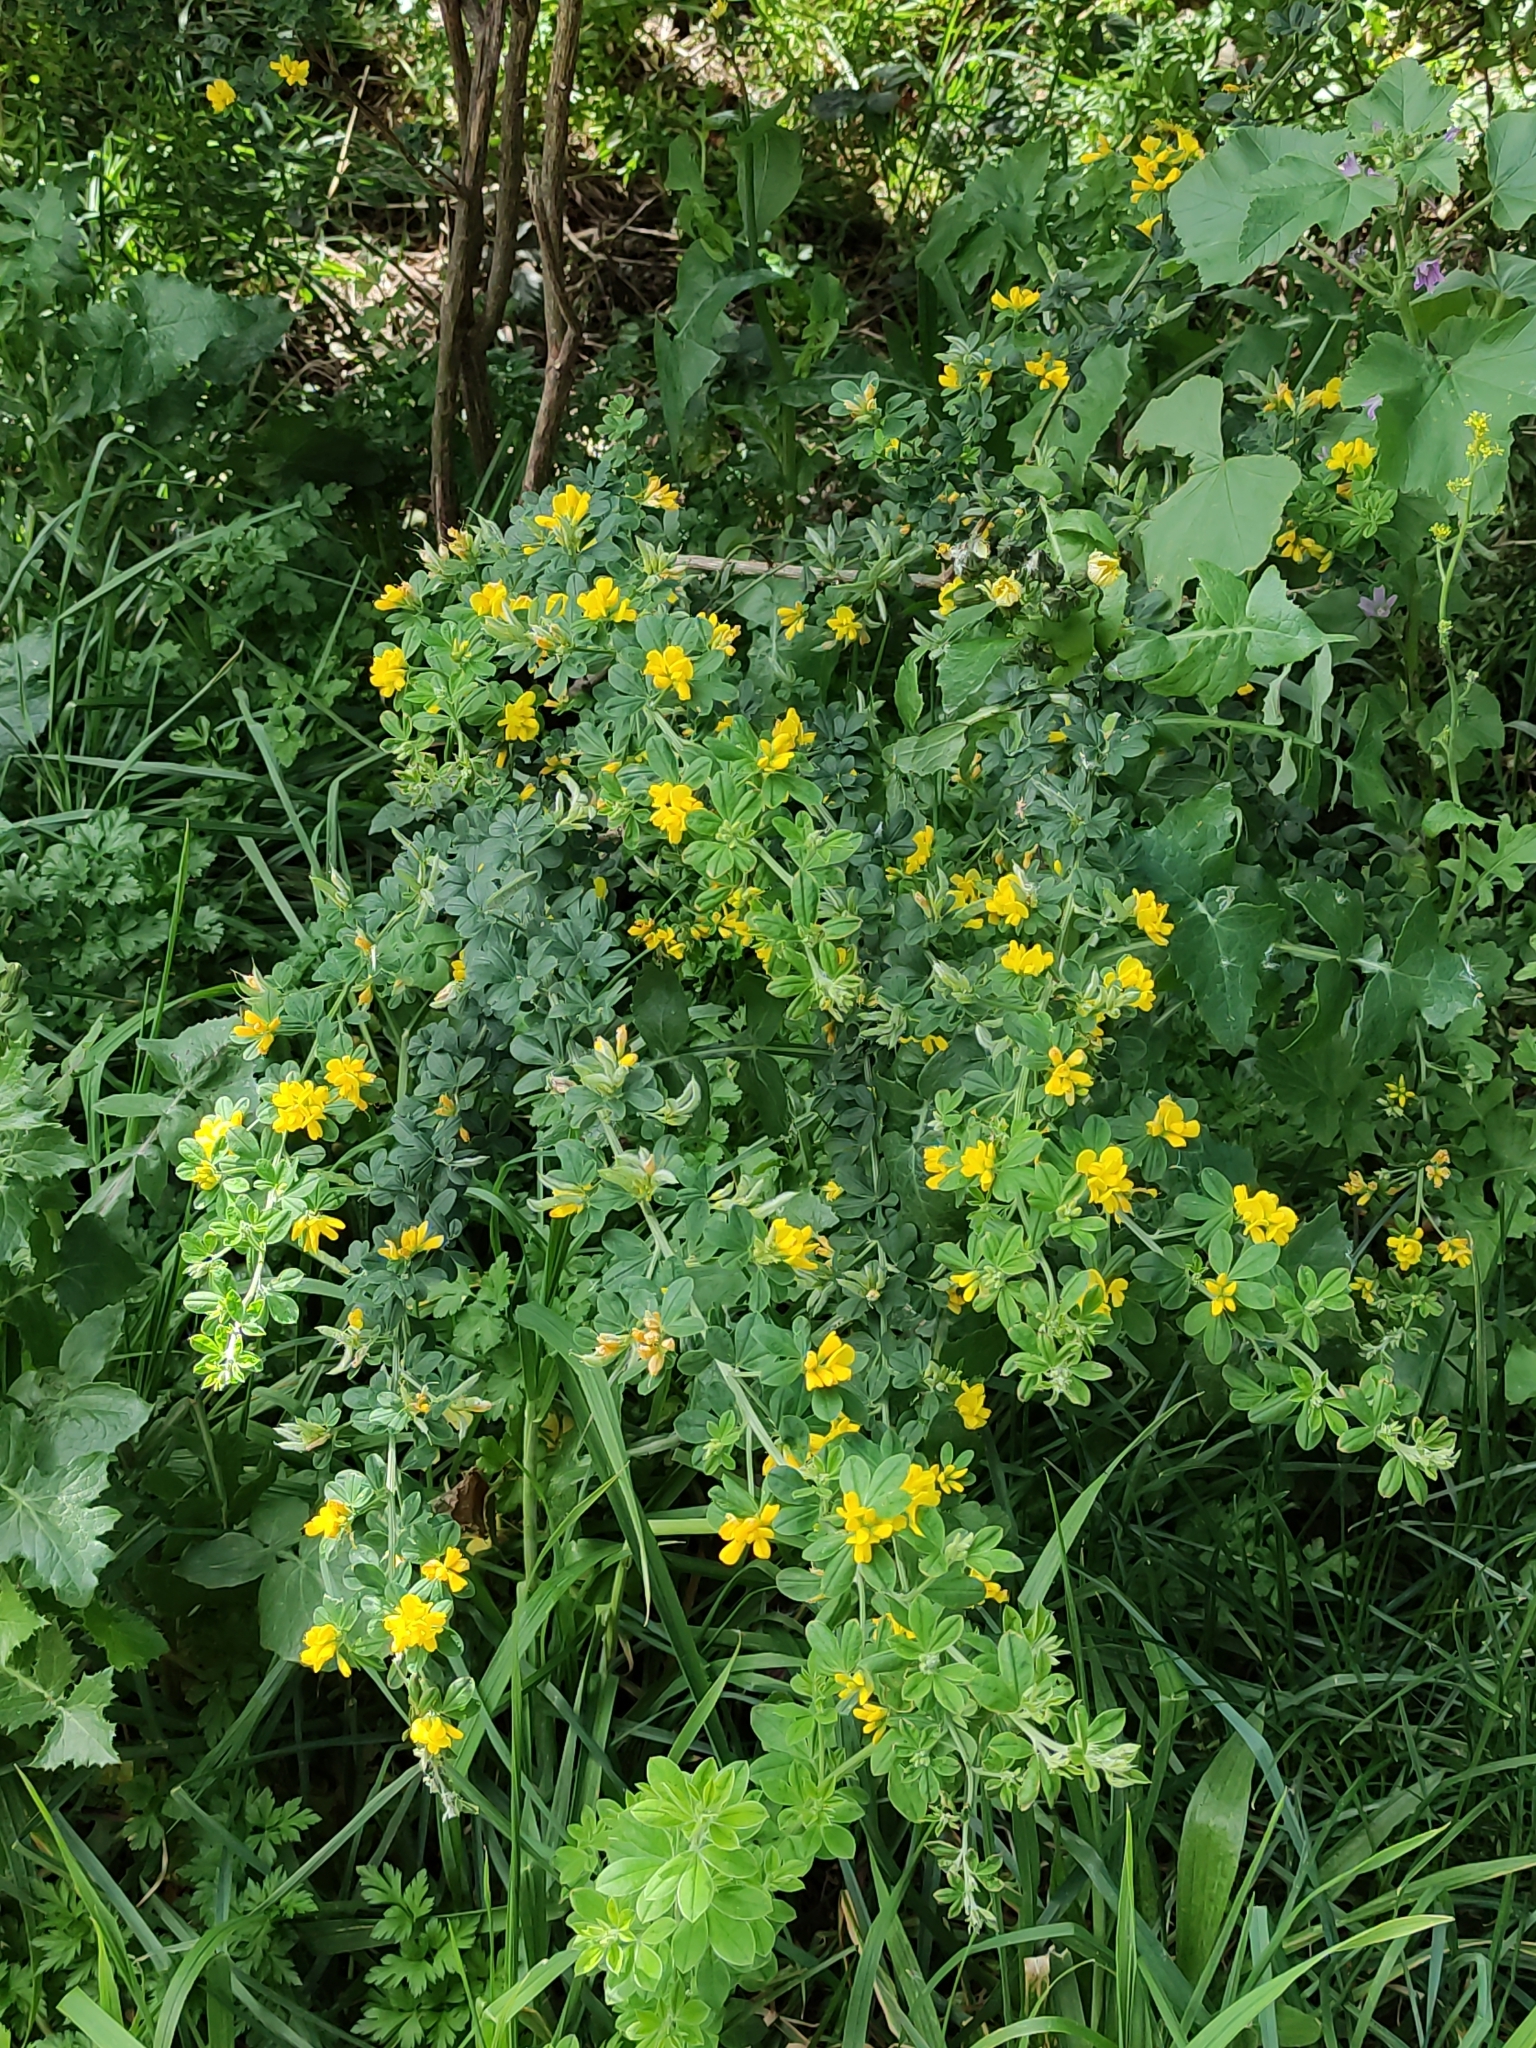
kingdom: Plantae
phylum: Tracheophyta
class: Magnoliopsida
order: Fabales
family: Fabaceae
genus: Genista
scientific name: Genista monspessulana
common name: Montpellier broom
